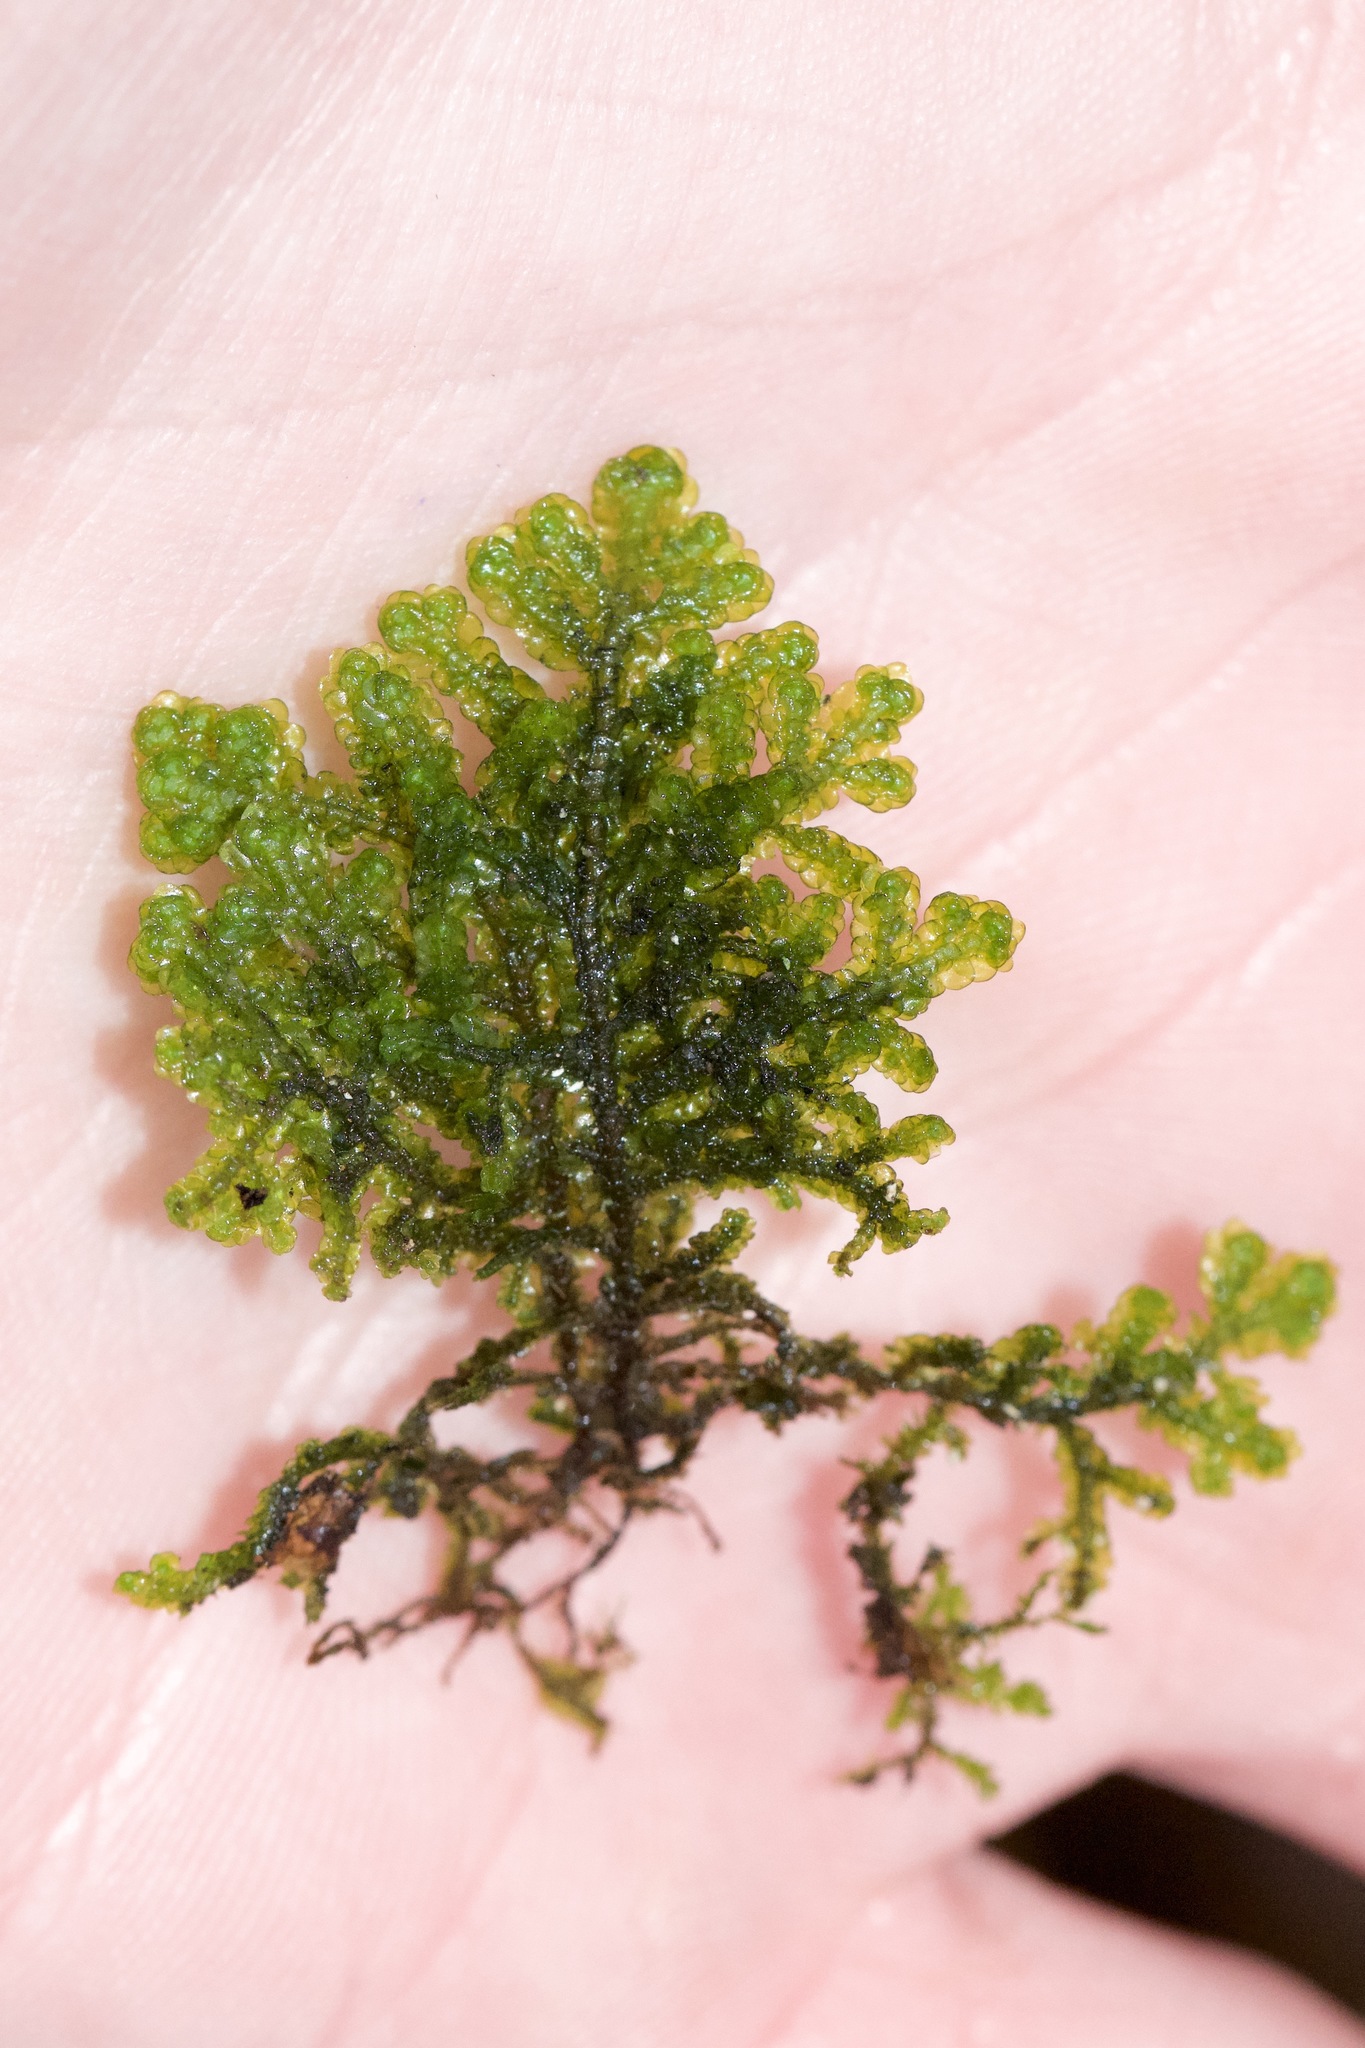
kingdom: Plantae
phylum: Marchantiophyta
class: Jungermanniopsida
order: Porellales
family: Porellaceae
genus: Porella
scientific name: Porella platyphylla
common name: Wall scalewort
